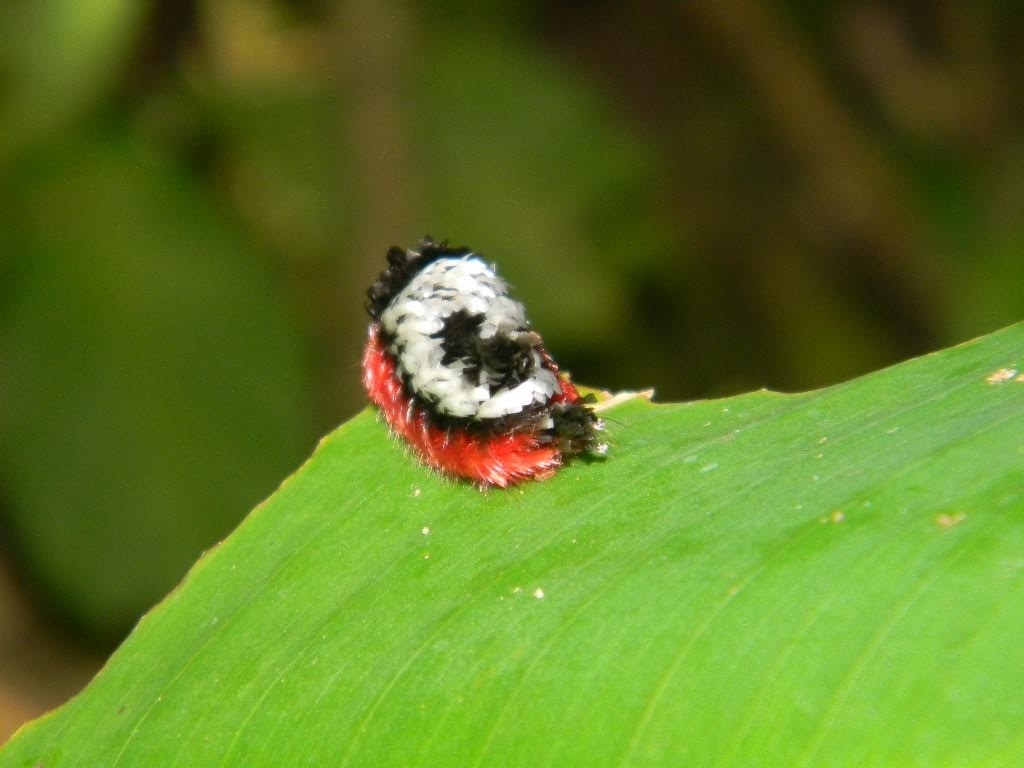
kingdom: Animalia
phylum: Arthropoda
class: Insecta
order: Lepidoptera
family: Bombycidae
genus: Prothysana
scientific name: Prothysana
